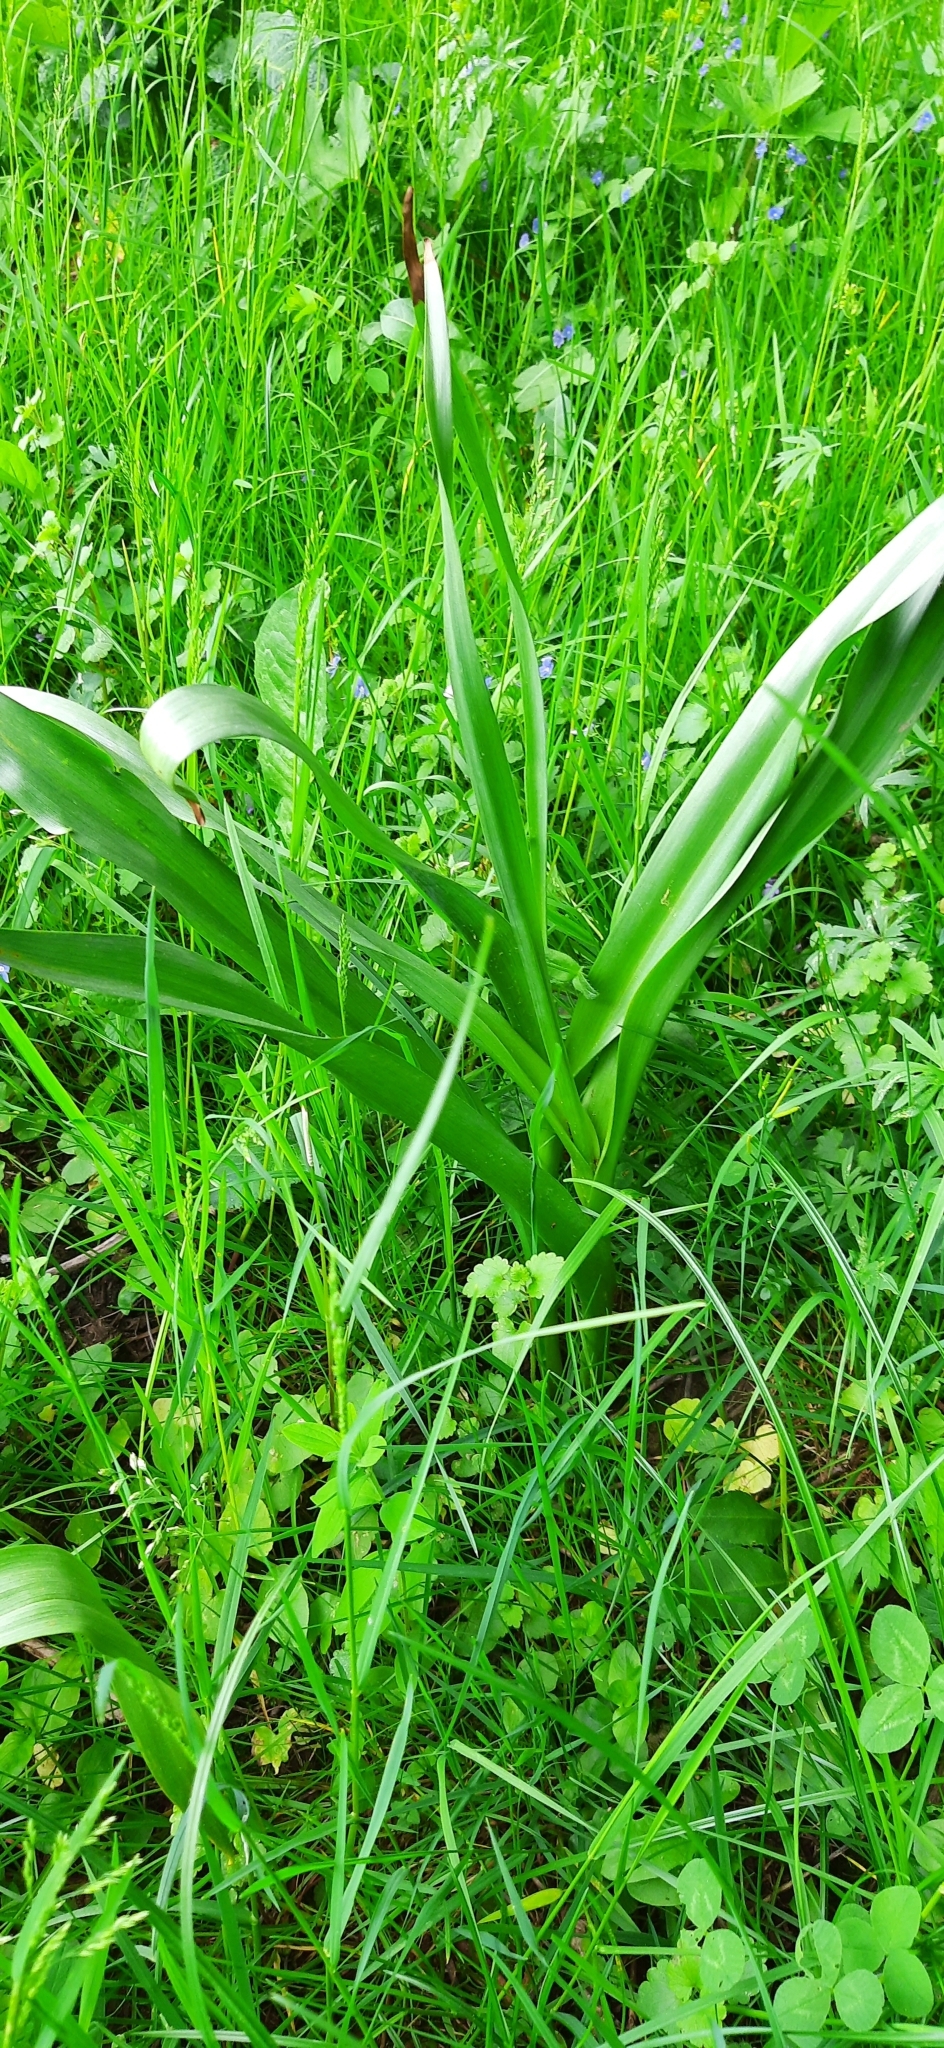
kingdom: Plantae
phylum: Tracheophyta
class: Liliopsida
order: Liliales
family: Colchicaceae
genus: Colchicum
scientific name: Colchicum autumnale
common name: Autumn crocus
